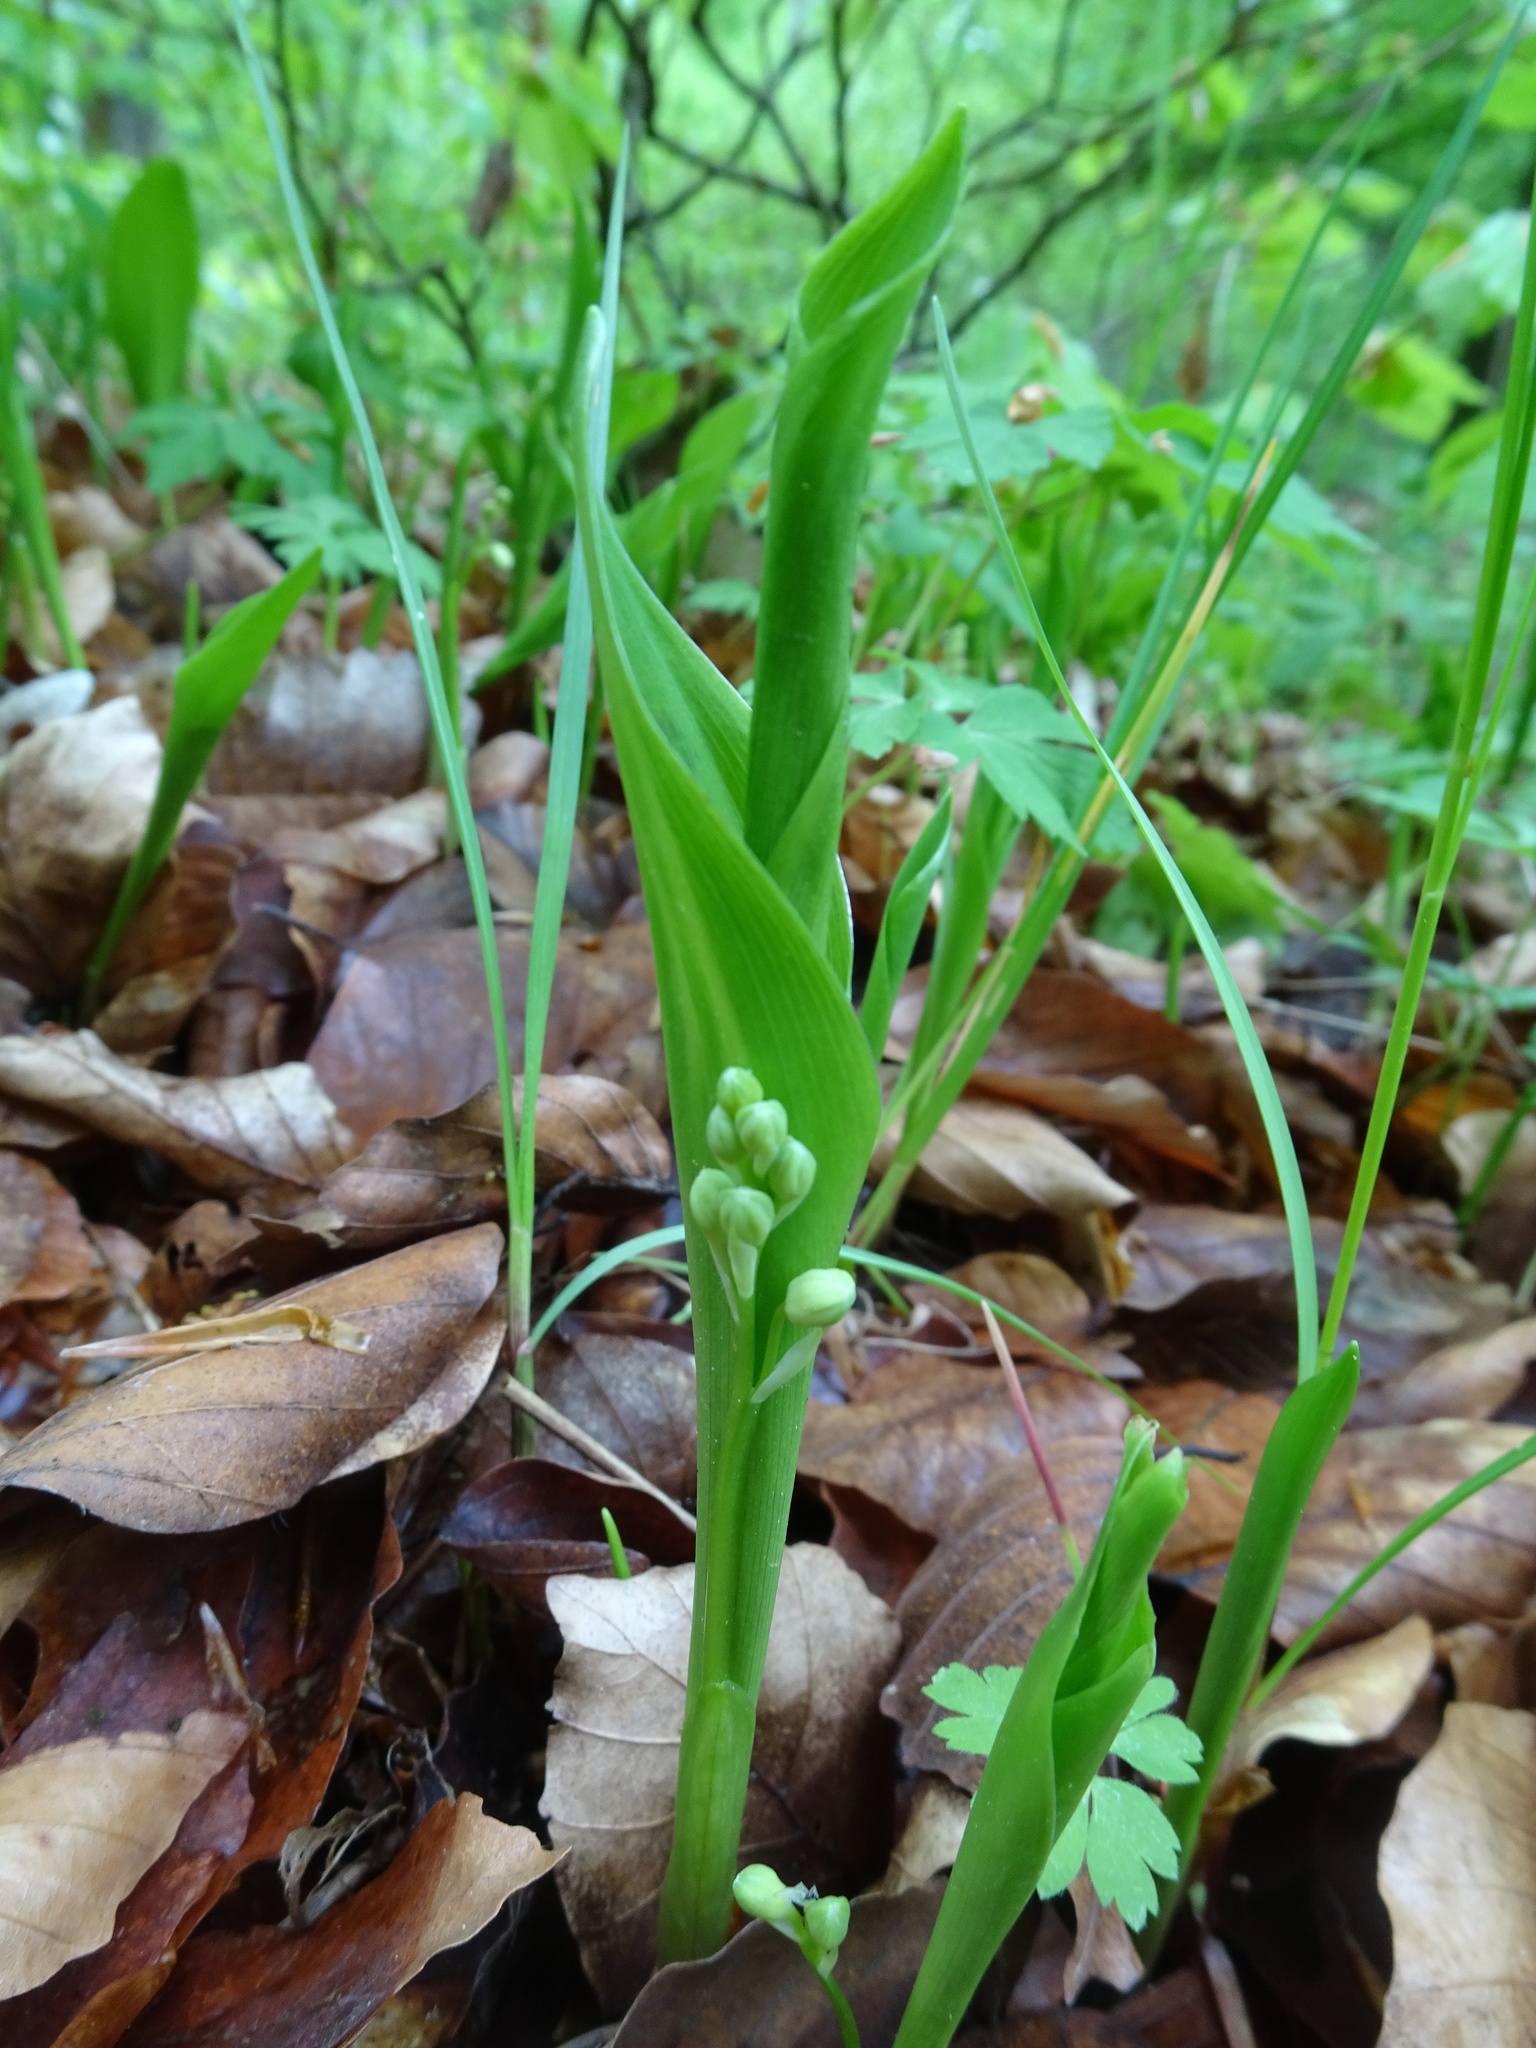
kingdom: Plantae
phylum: Tracheophyta
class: Liliopsida
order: Asparagales
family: Asparagaceae
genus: Convallaria
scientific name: Convallaria majalis
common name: Lily-of-the-valley
